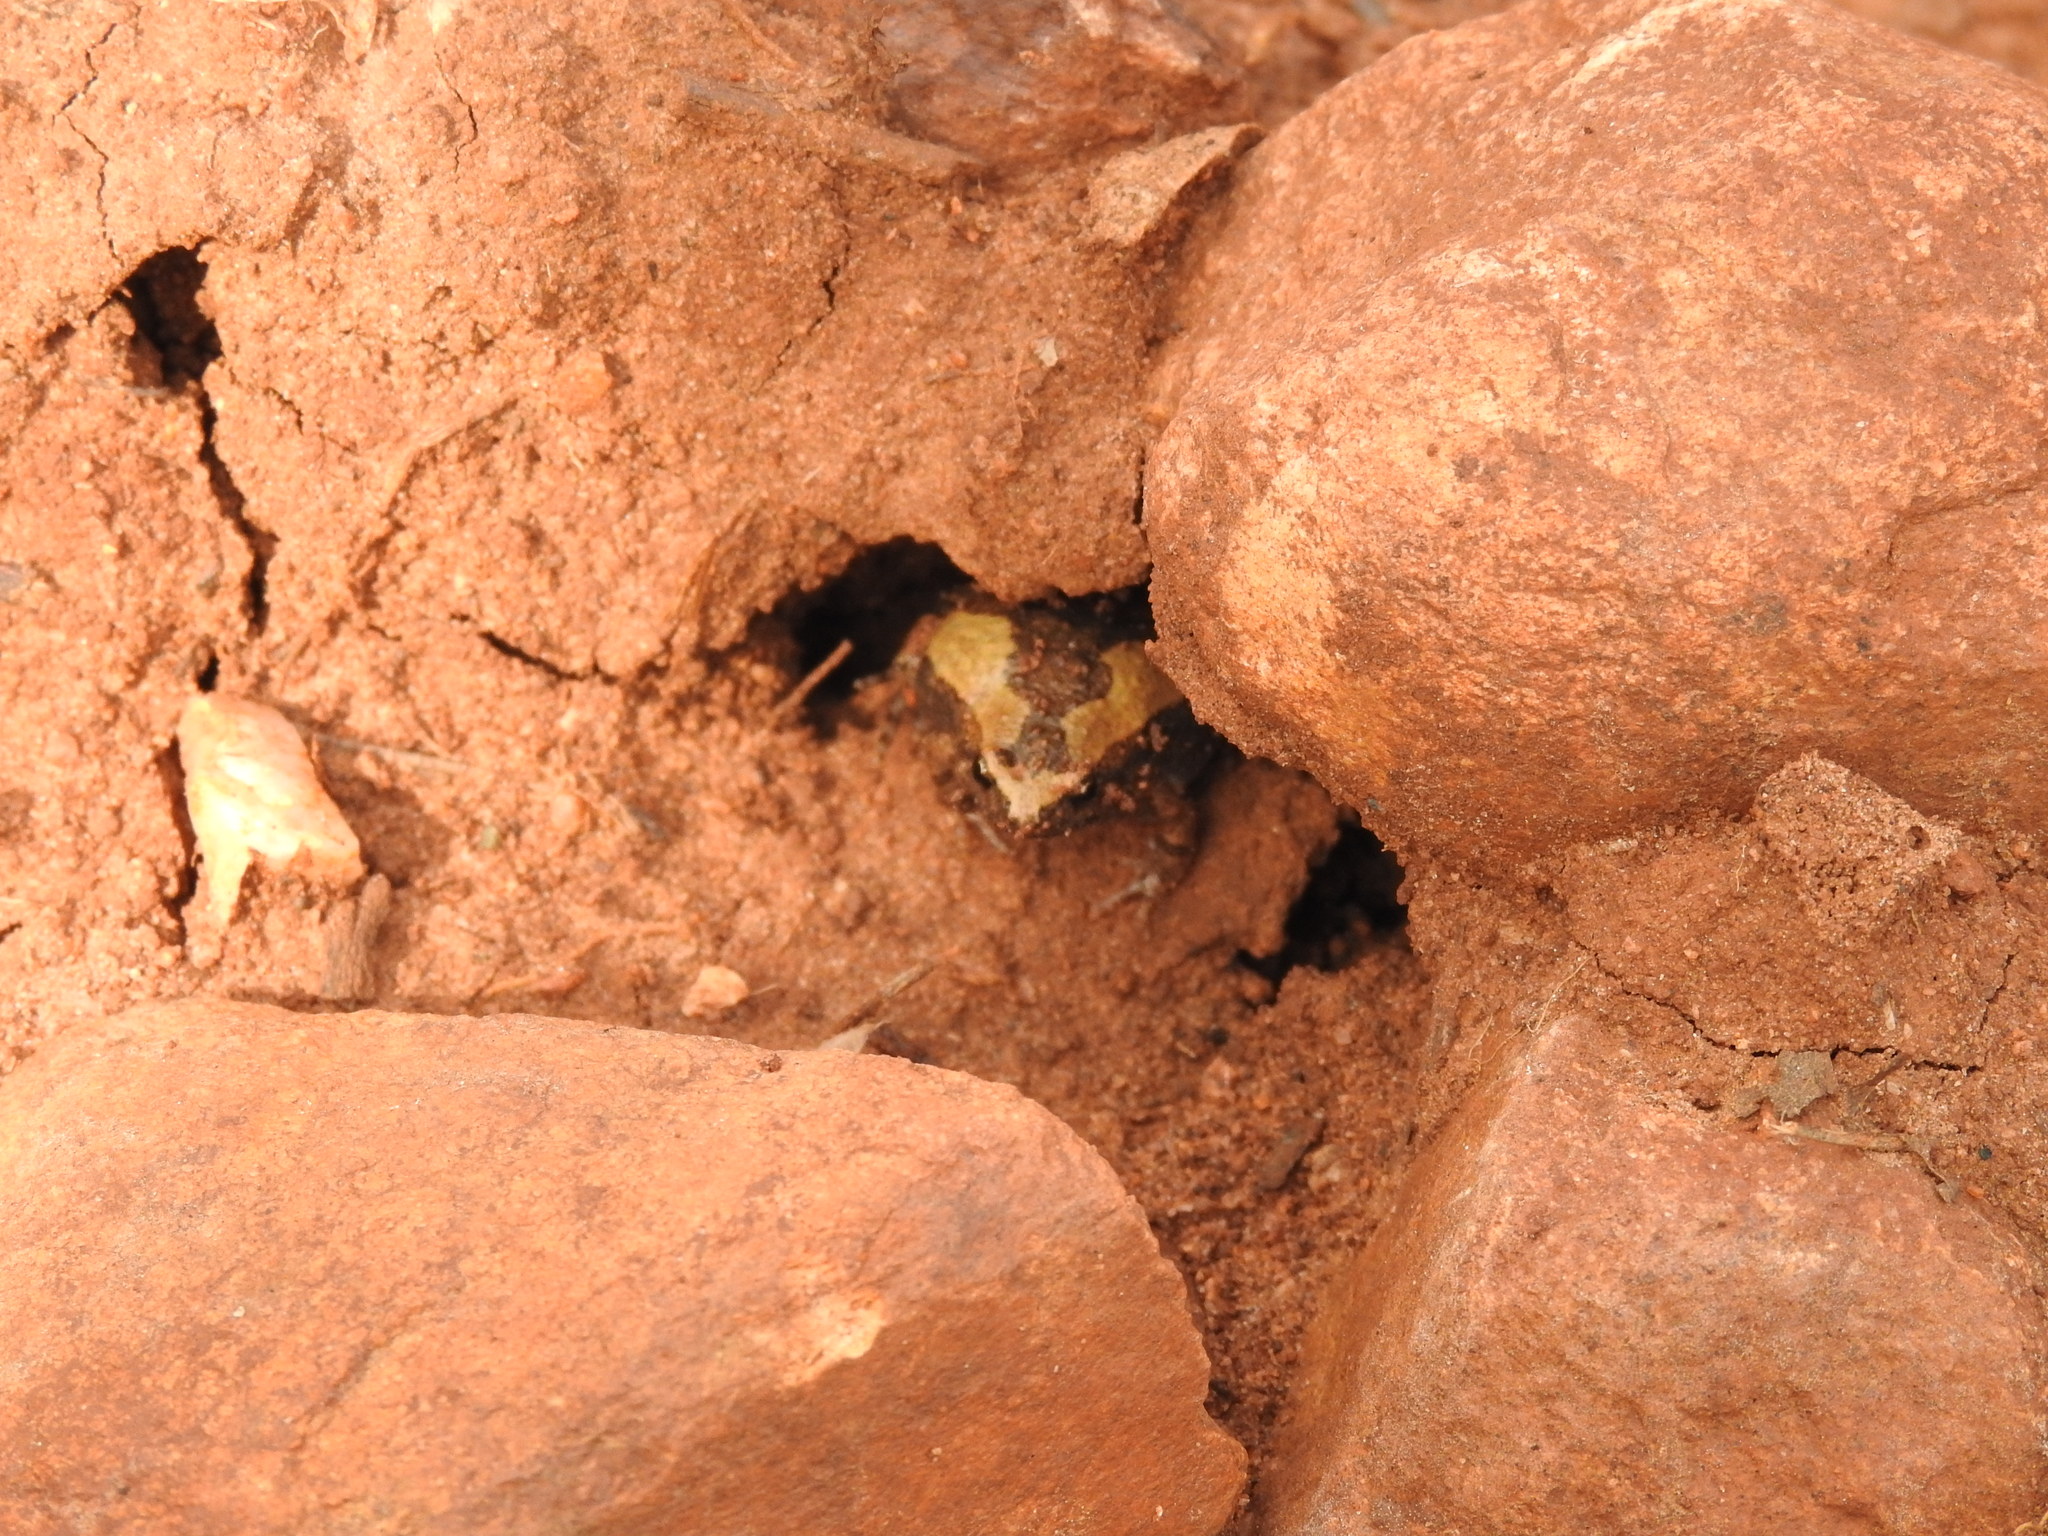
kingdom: Animalia
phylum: Chordata
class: Amphibia
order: Anura
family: Microhylidae
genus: Microhyla
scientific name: Microhyla ornata
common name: Ant frog
